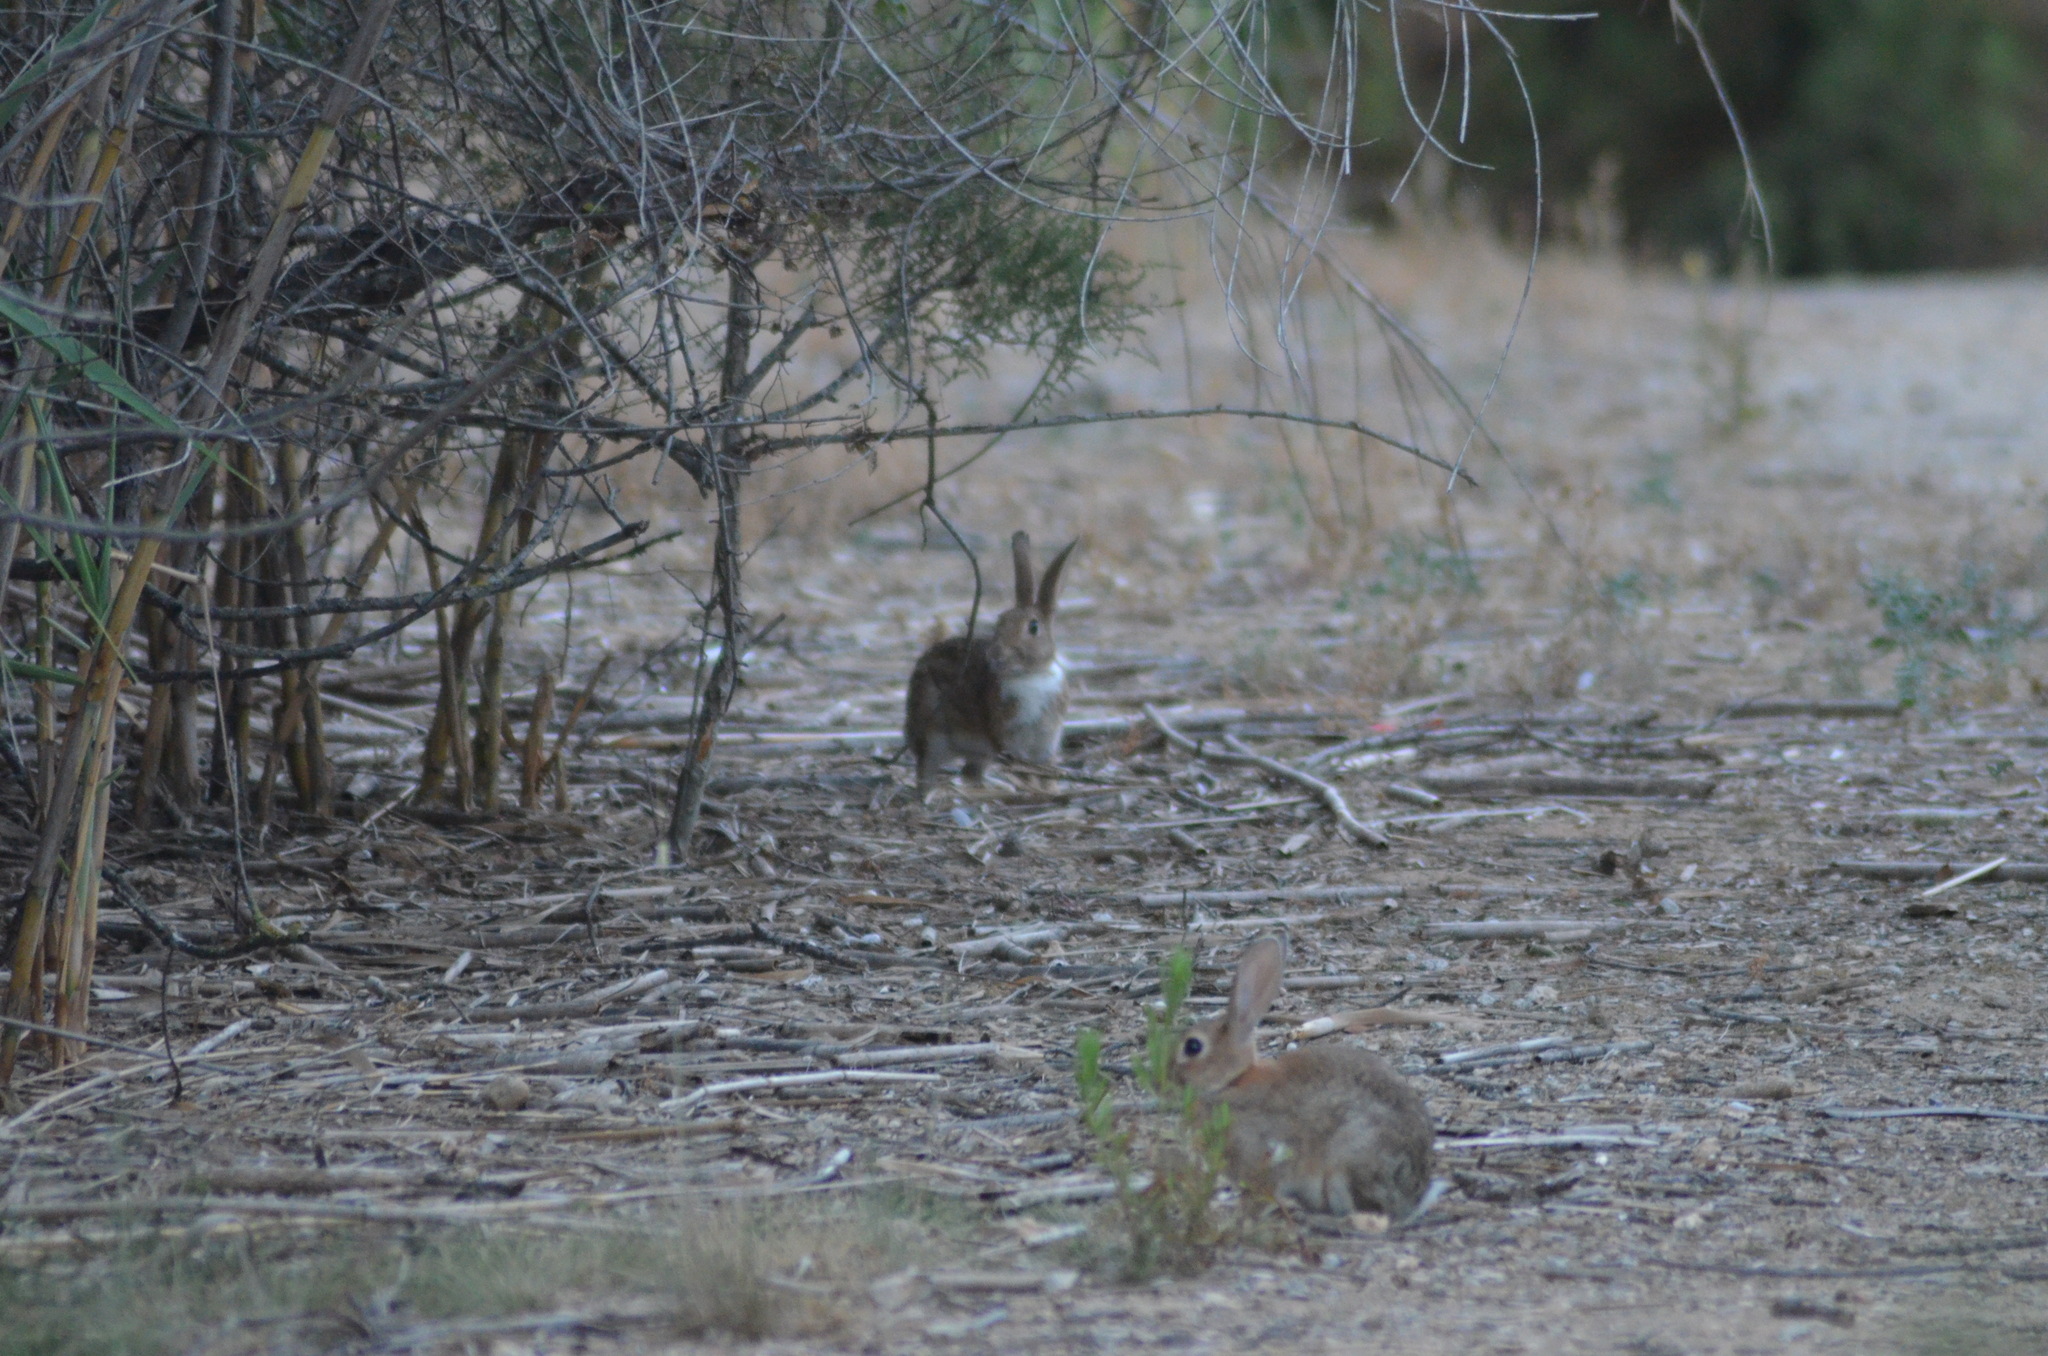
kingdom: Animalia
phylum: Chordata
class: Mammalia
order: Lagomorpha
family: Leporidae
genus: Oryctolagus
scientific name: Oryctolagus cuniculus
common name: European rabbit
